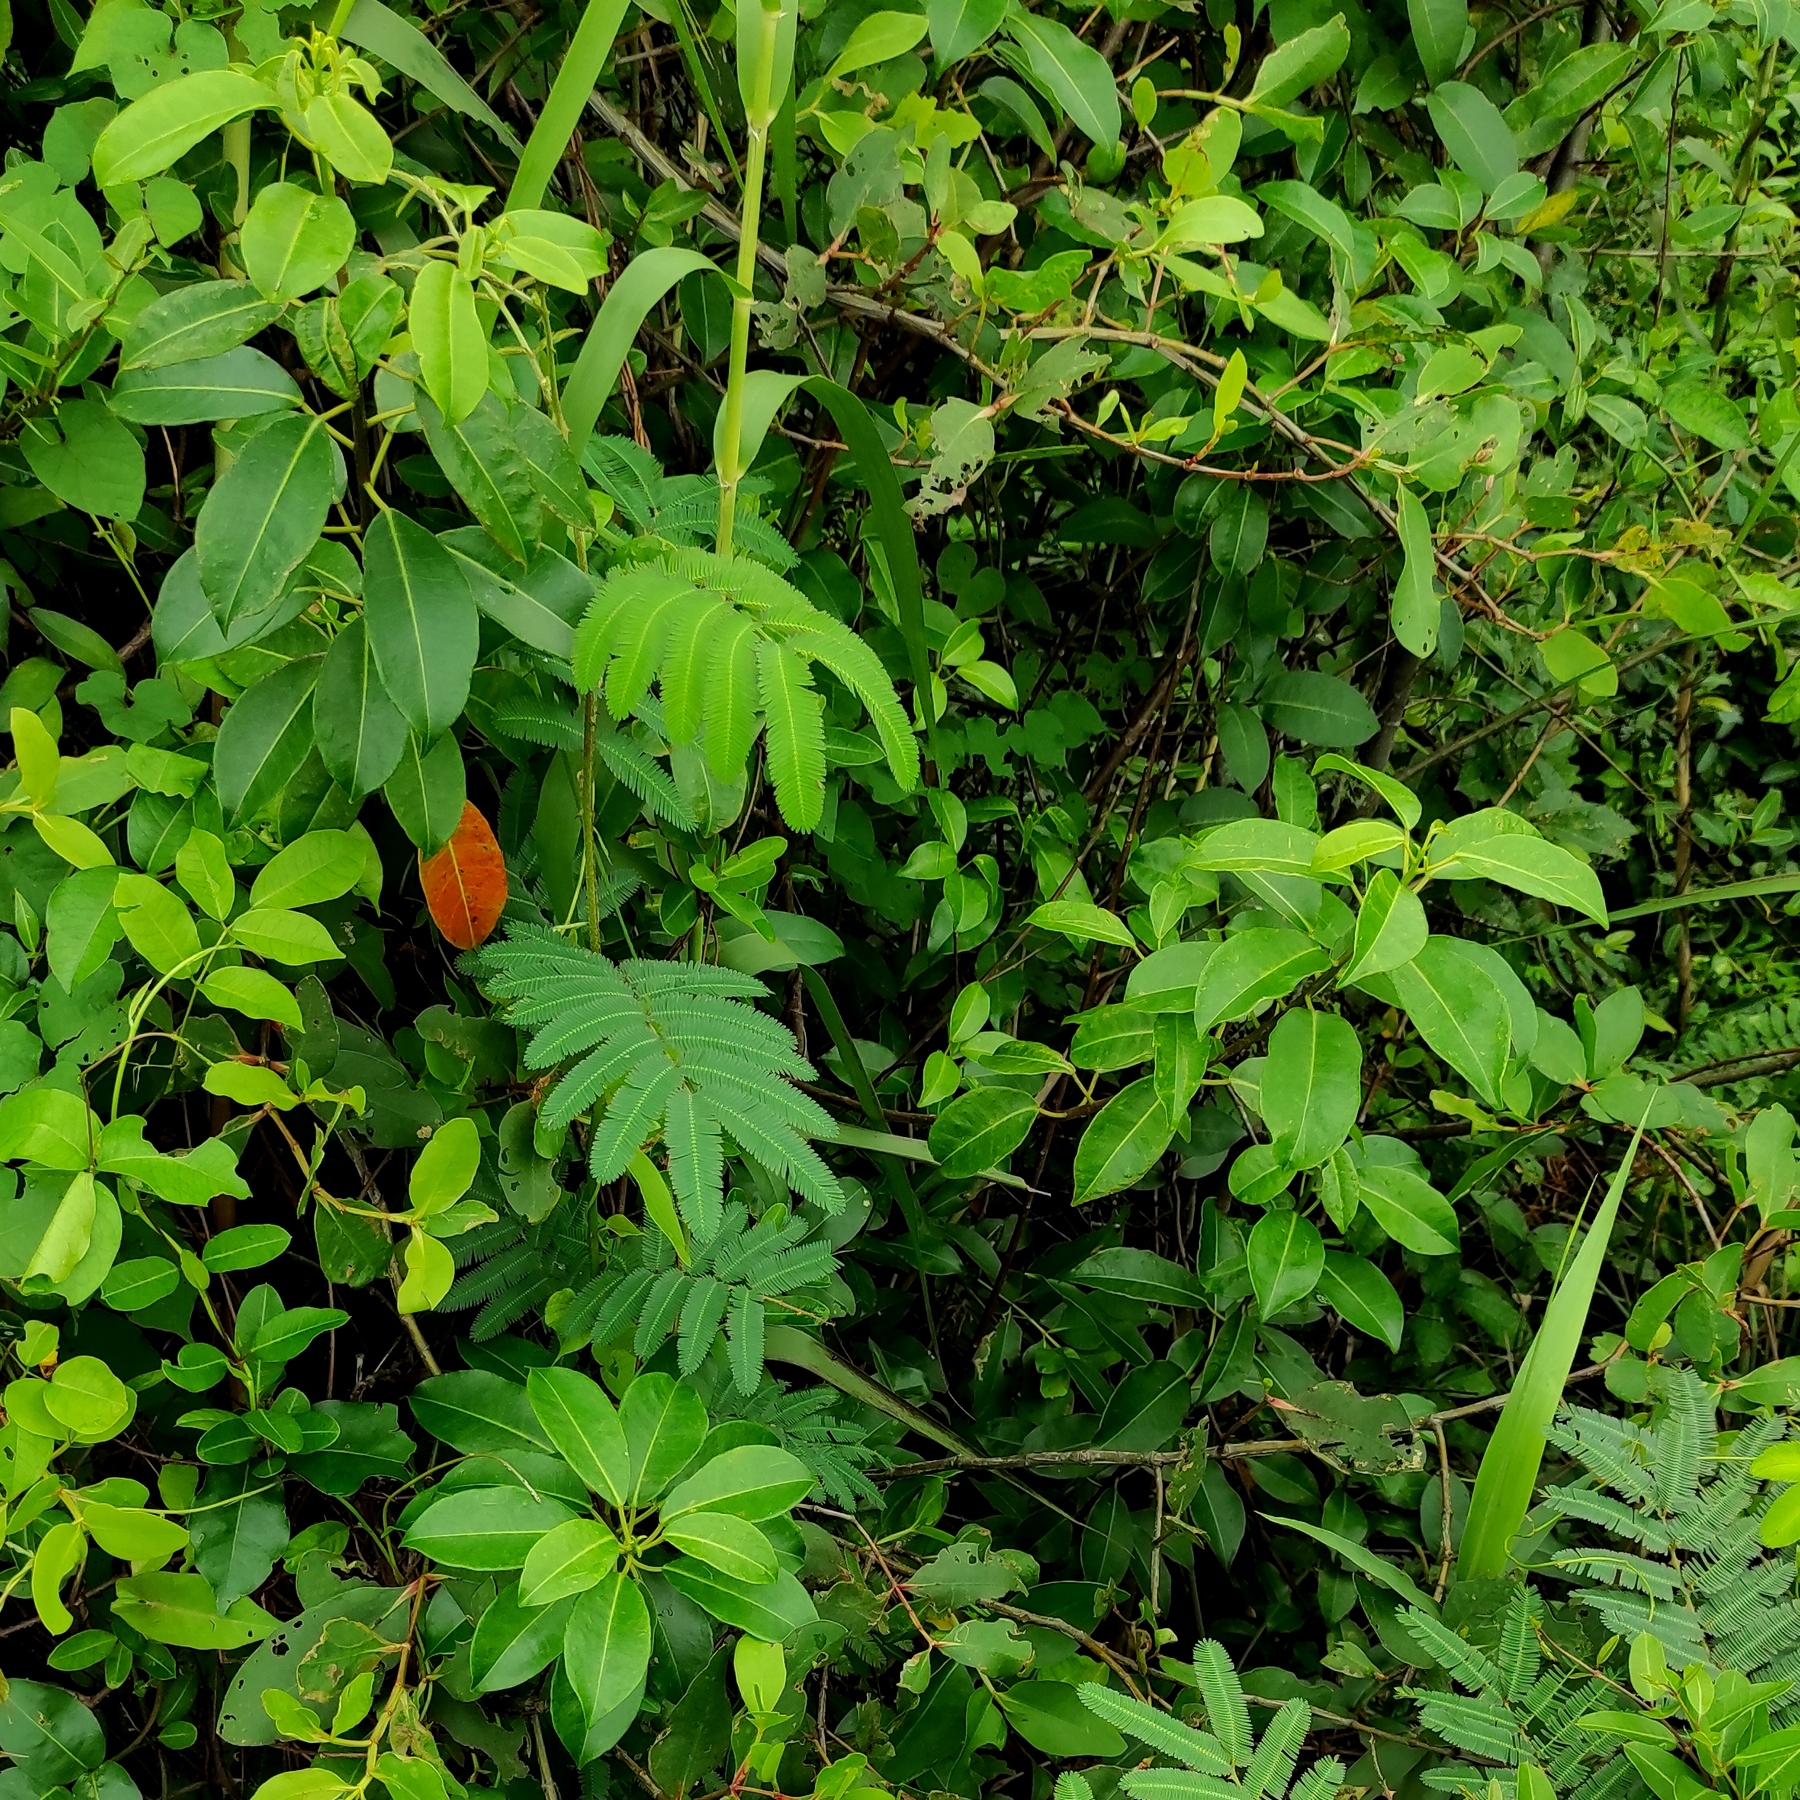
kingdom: Plantae
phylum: Tracheophyta
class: Magnoliopsida
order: Malpighiales
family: Euphorbiaceae
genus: Excoecaria
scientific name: Excoecaria agallocha
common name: River poisontree
